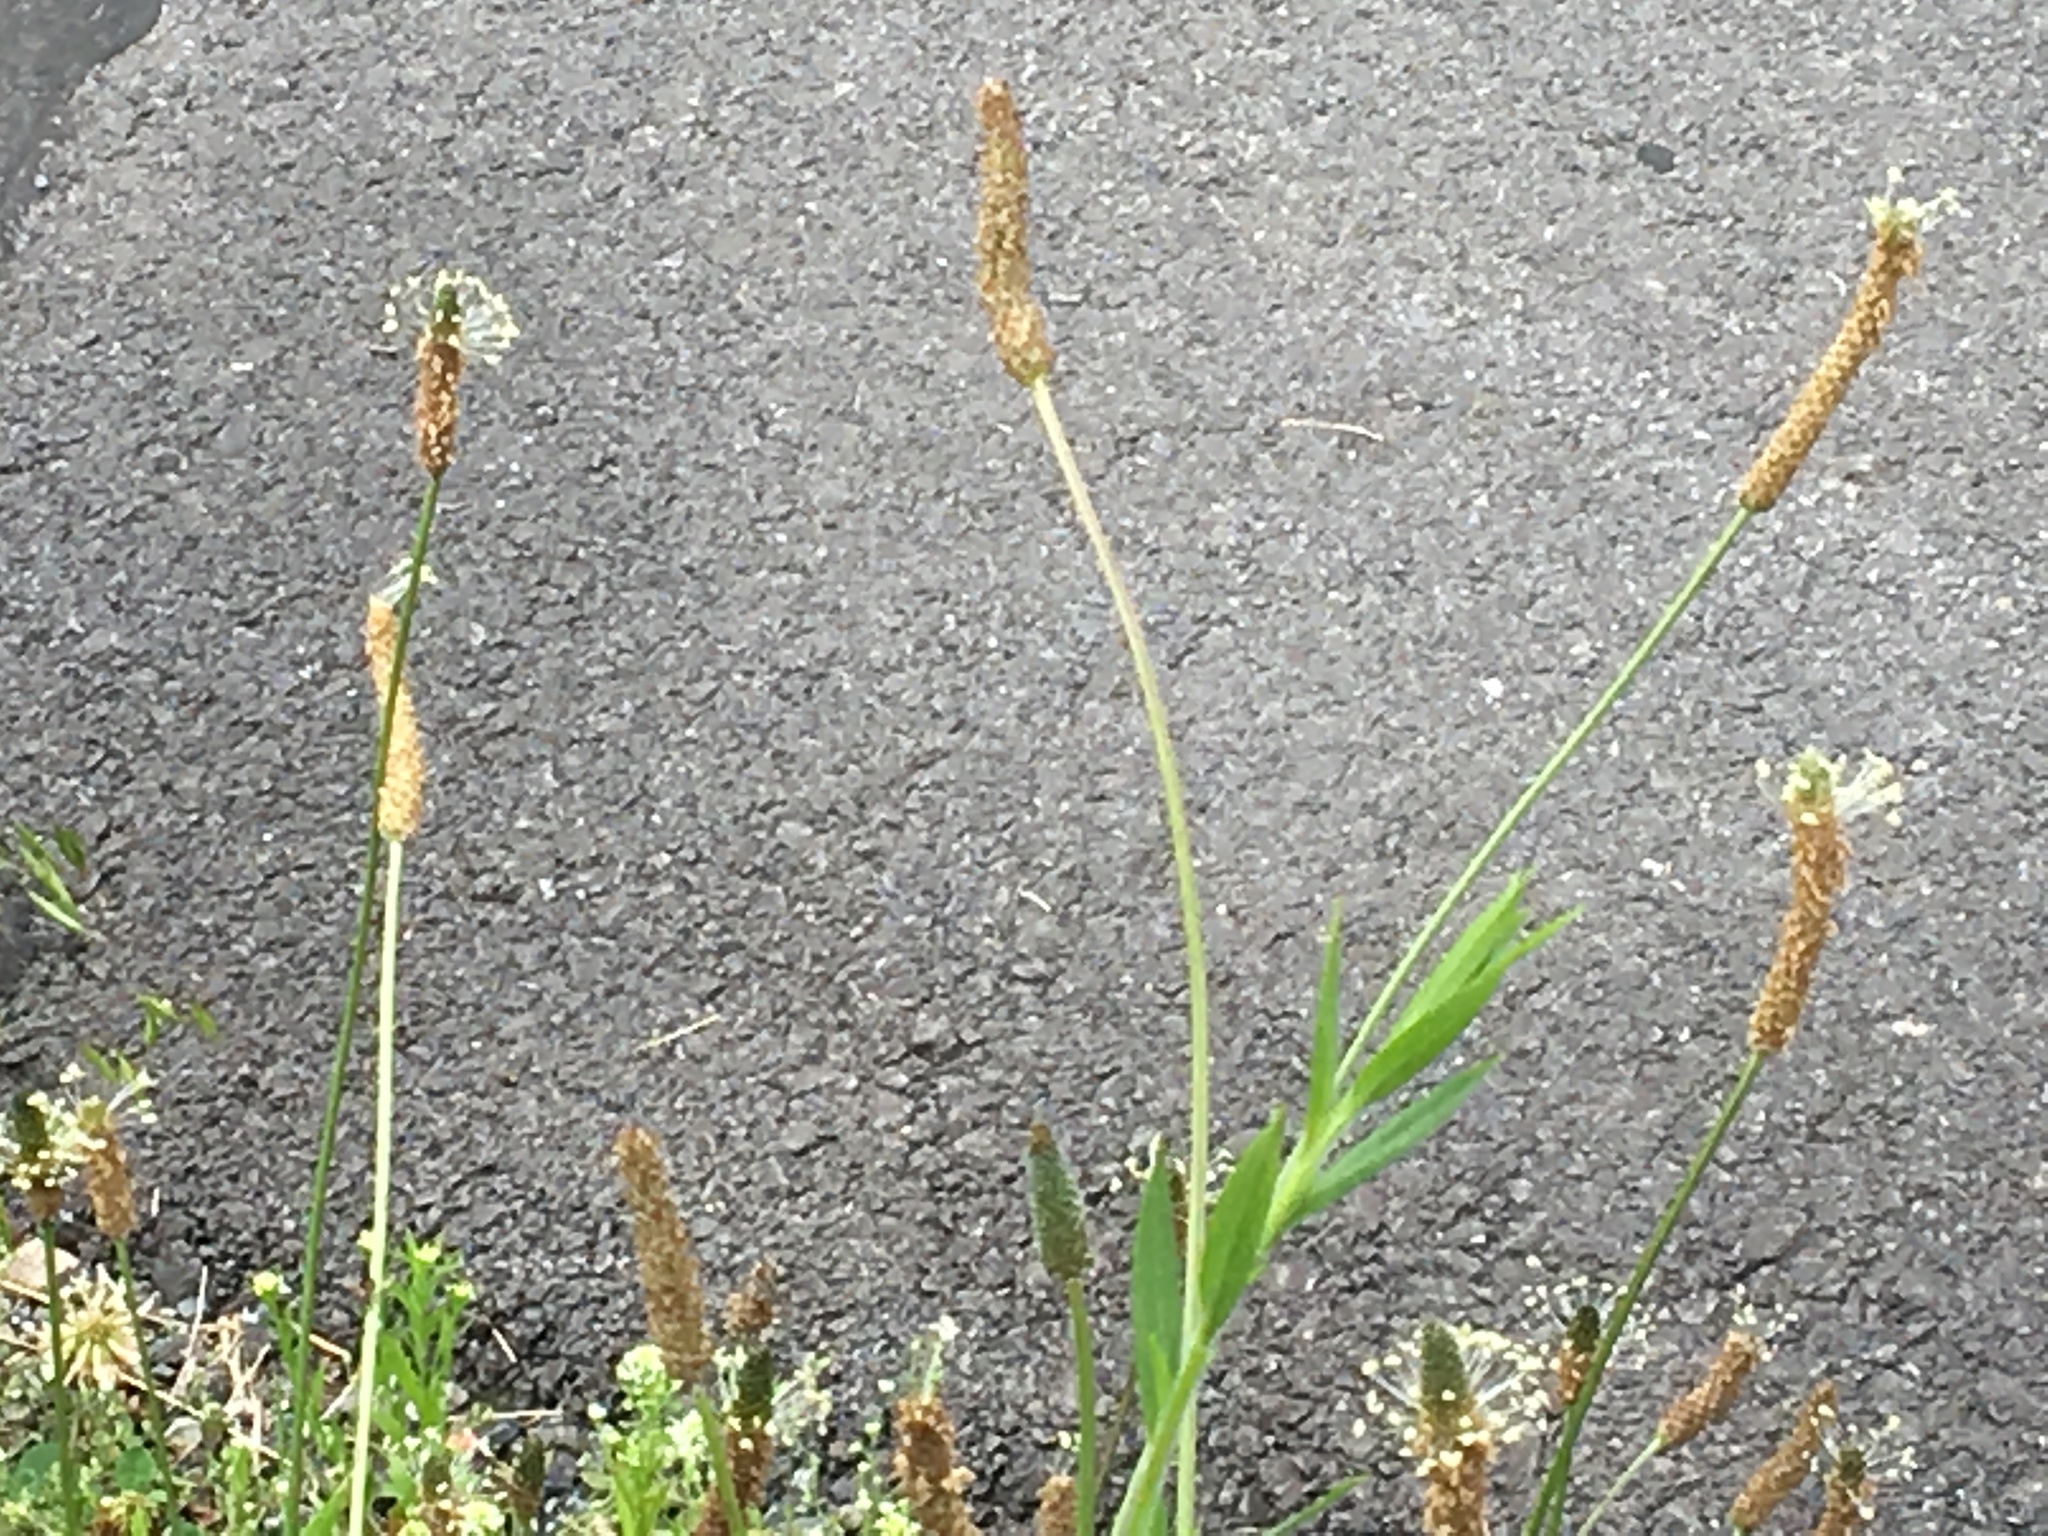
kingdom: Plantae
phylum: Tracheophyta
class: Magnoliopsida
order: Lamiales
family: Plantaginaceae
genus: Plantago
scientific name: Plantago lanceolata
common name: Ribwort plantain
